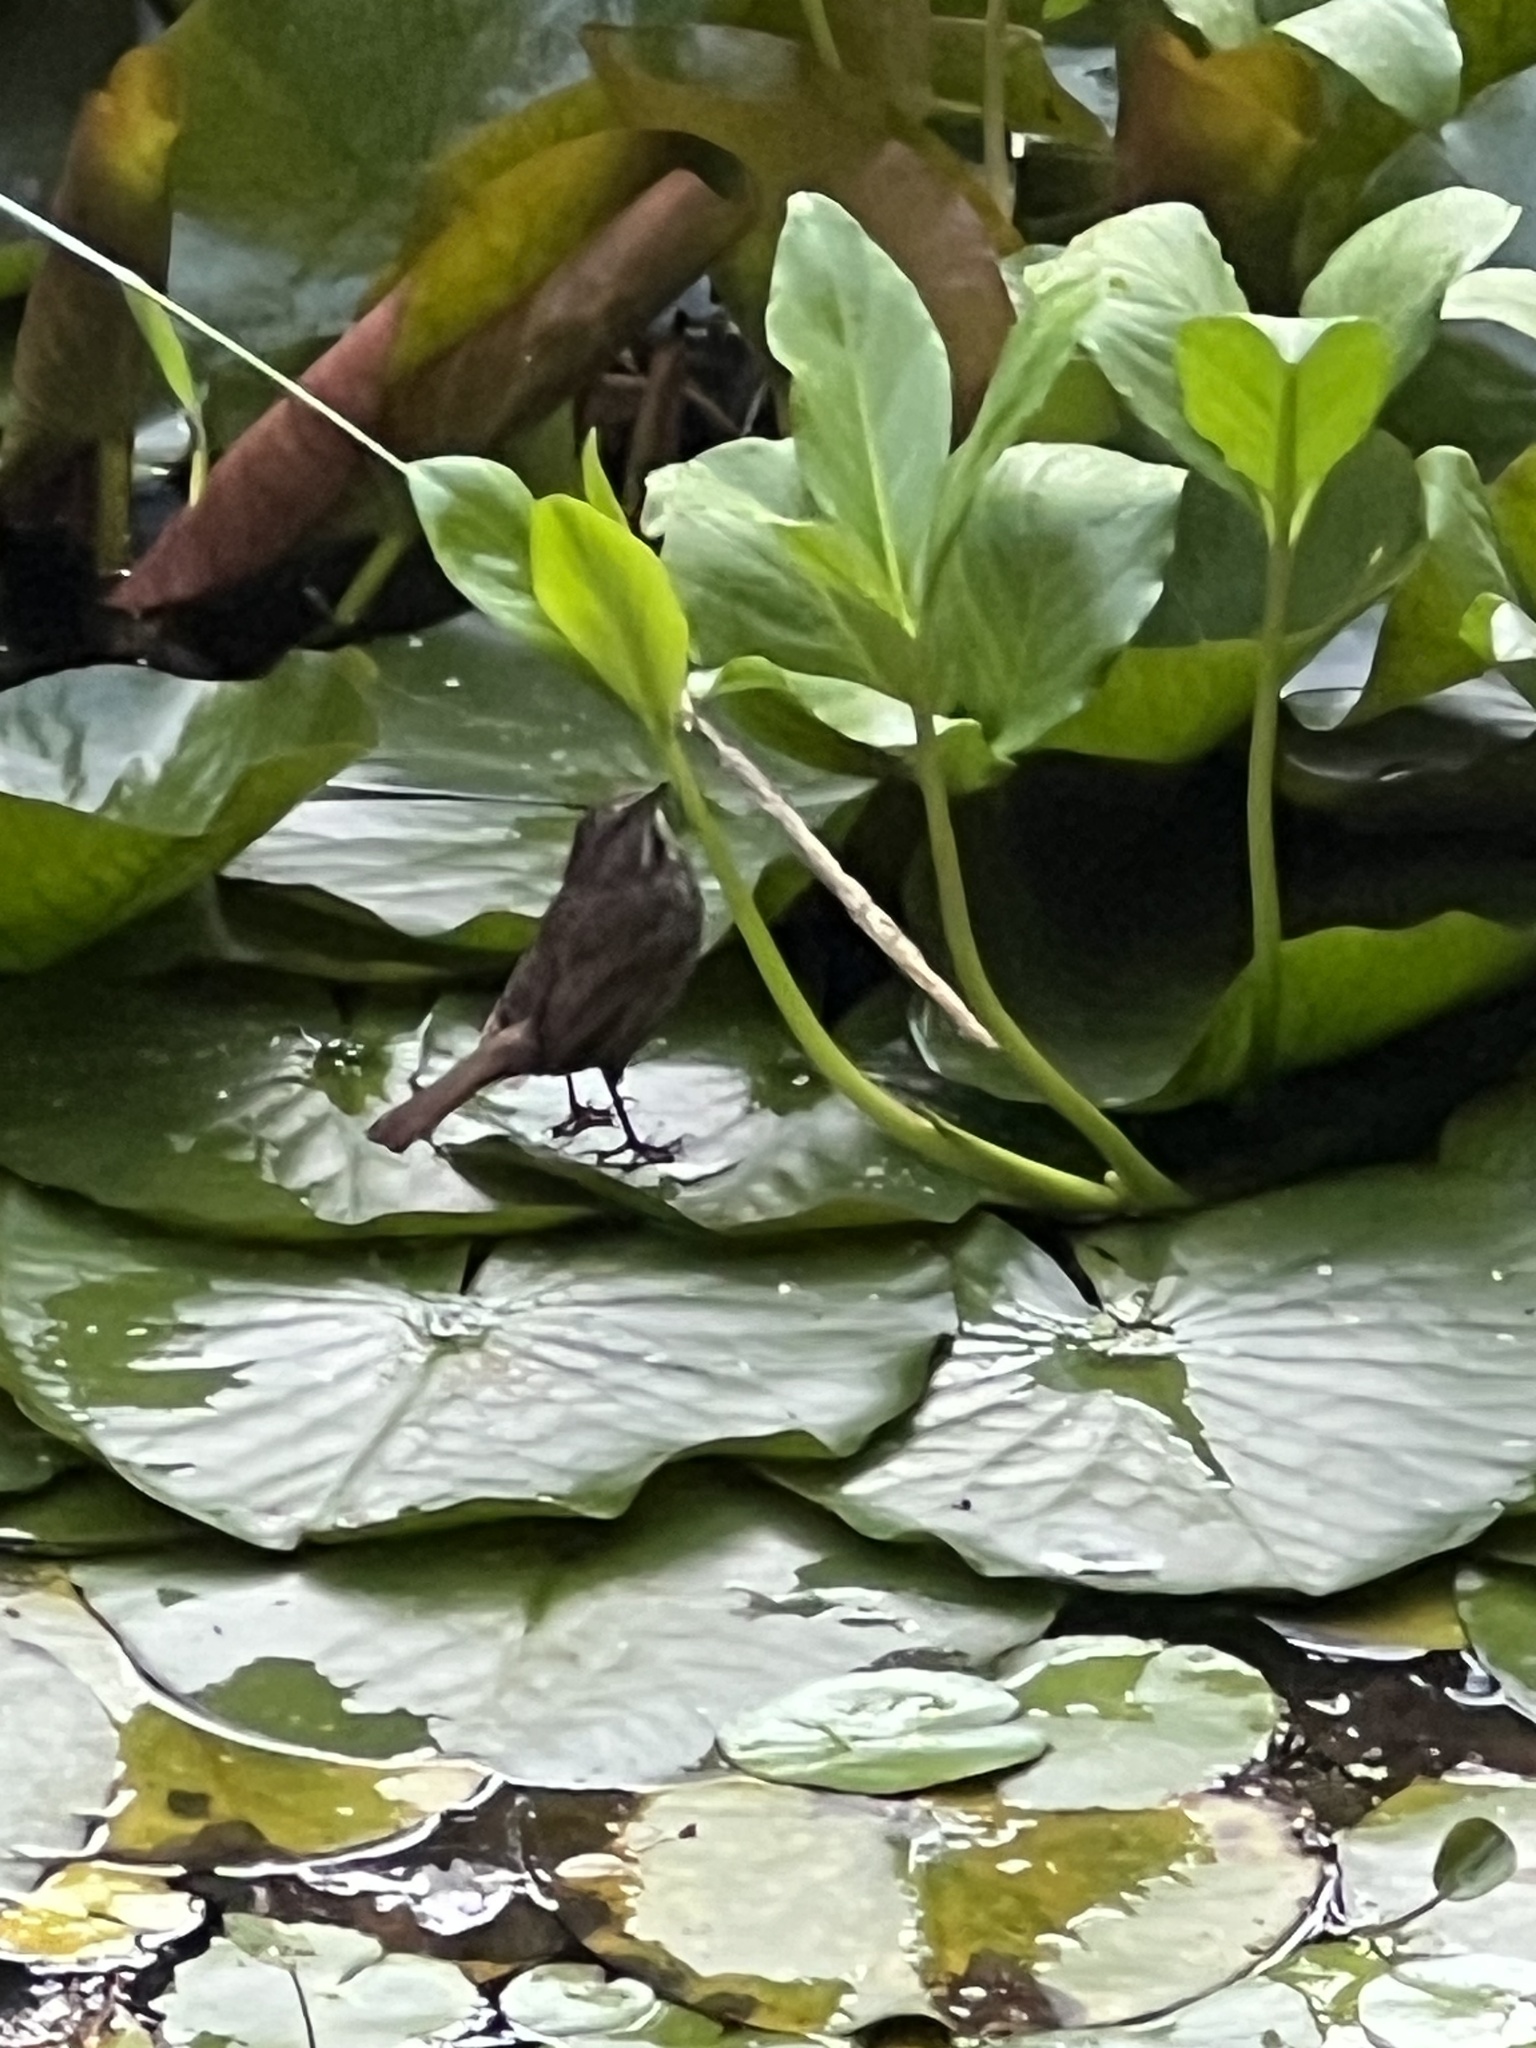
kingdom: Animalia
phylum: Chordata
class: Aves
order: Passeriformes
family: Passerellidae
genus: Melospiza
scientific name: Melospiza melodia
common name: Song sparrow
